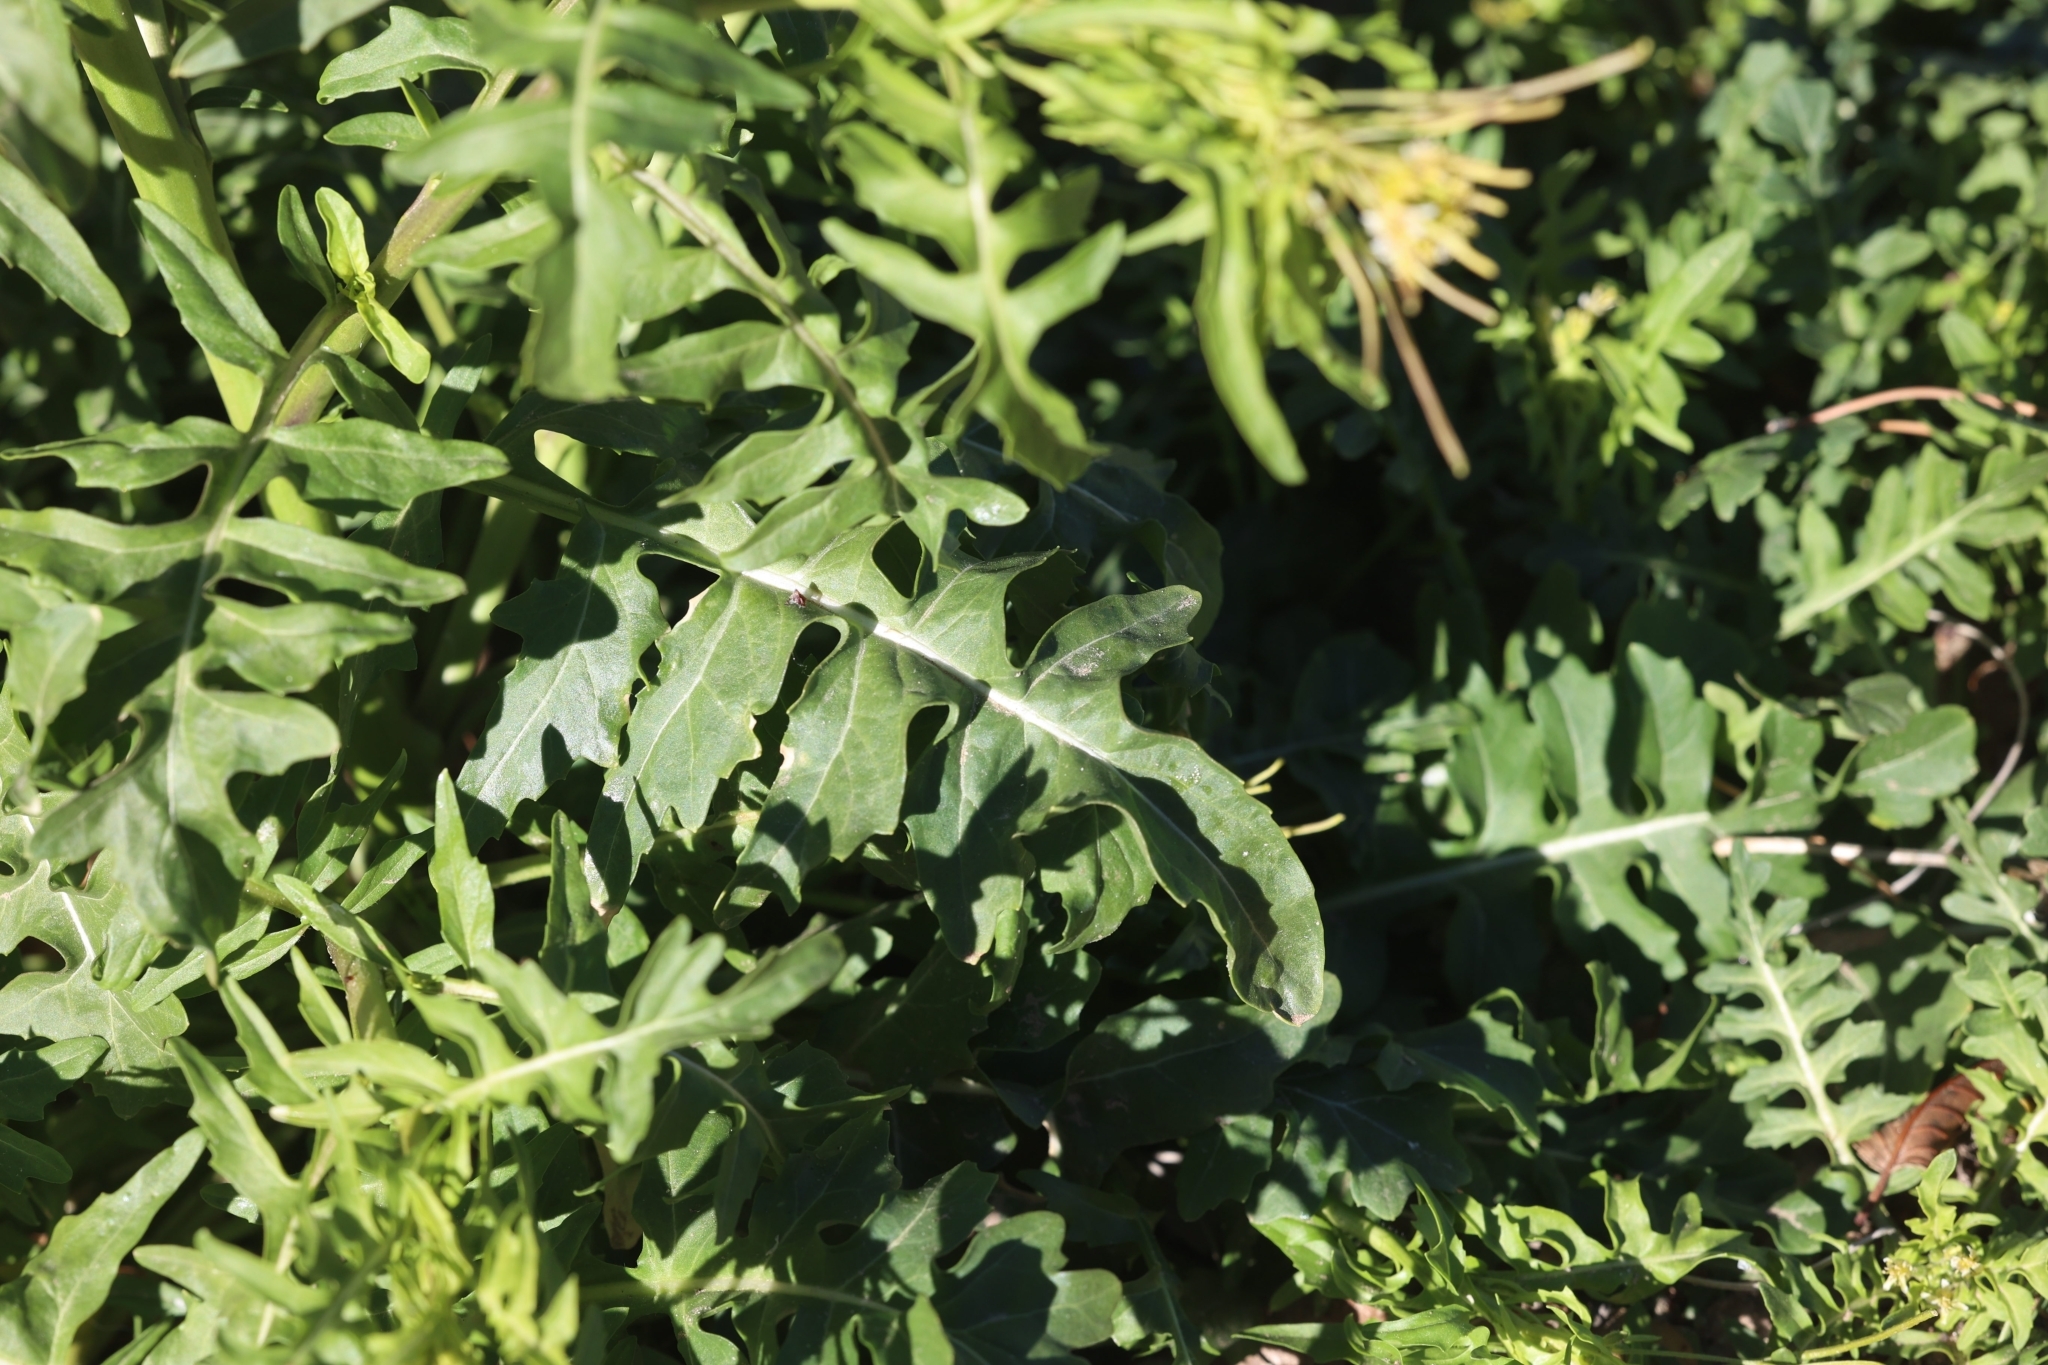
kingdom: Plantae
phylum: Tracheophyta
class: Magnoliopsida
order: Brassicales
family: Brassicaceae
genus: Sisymbrium
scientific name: Sisymbrium irio
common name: London rocket
